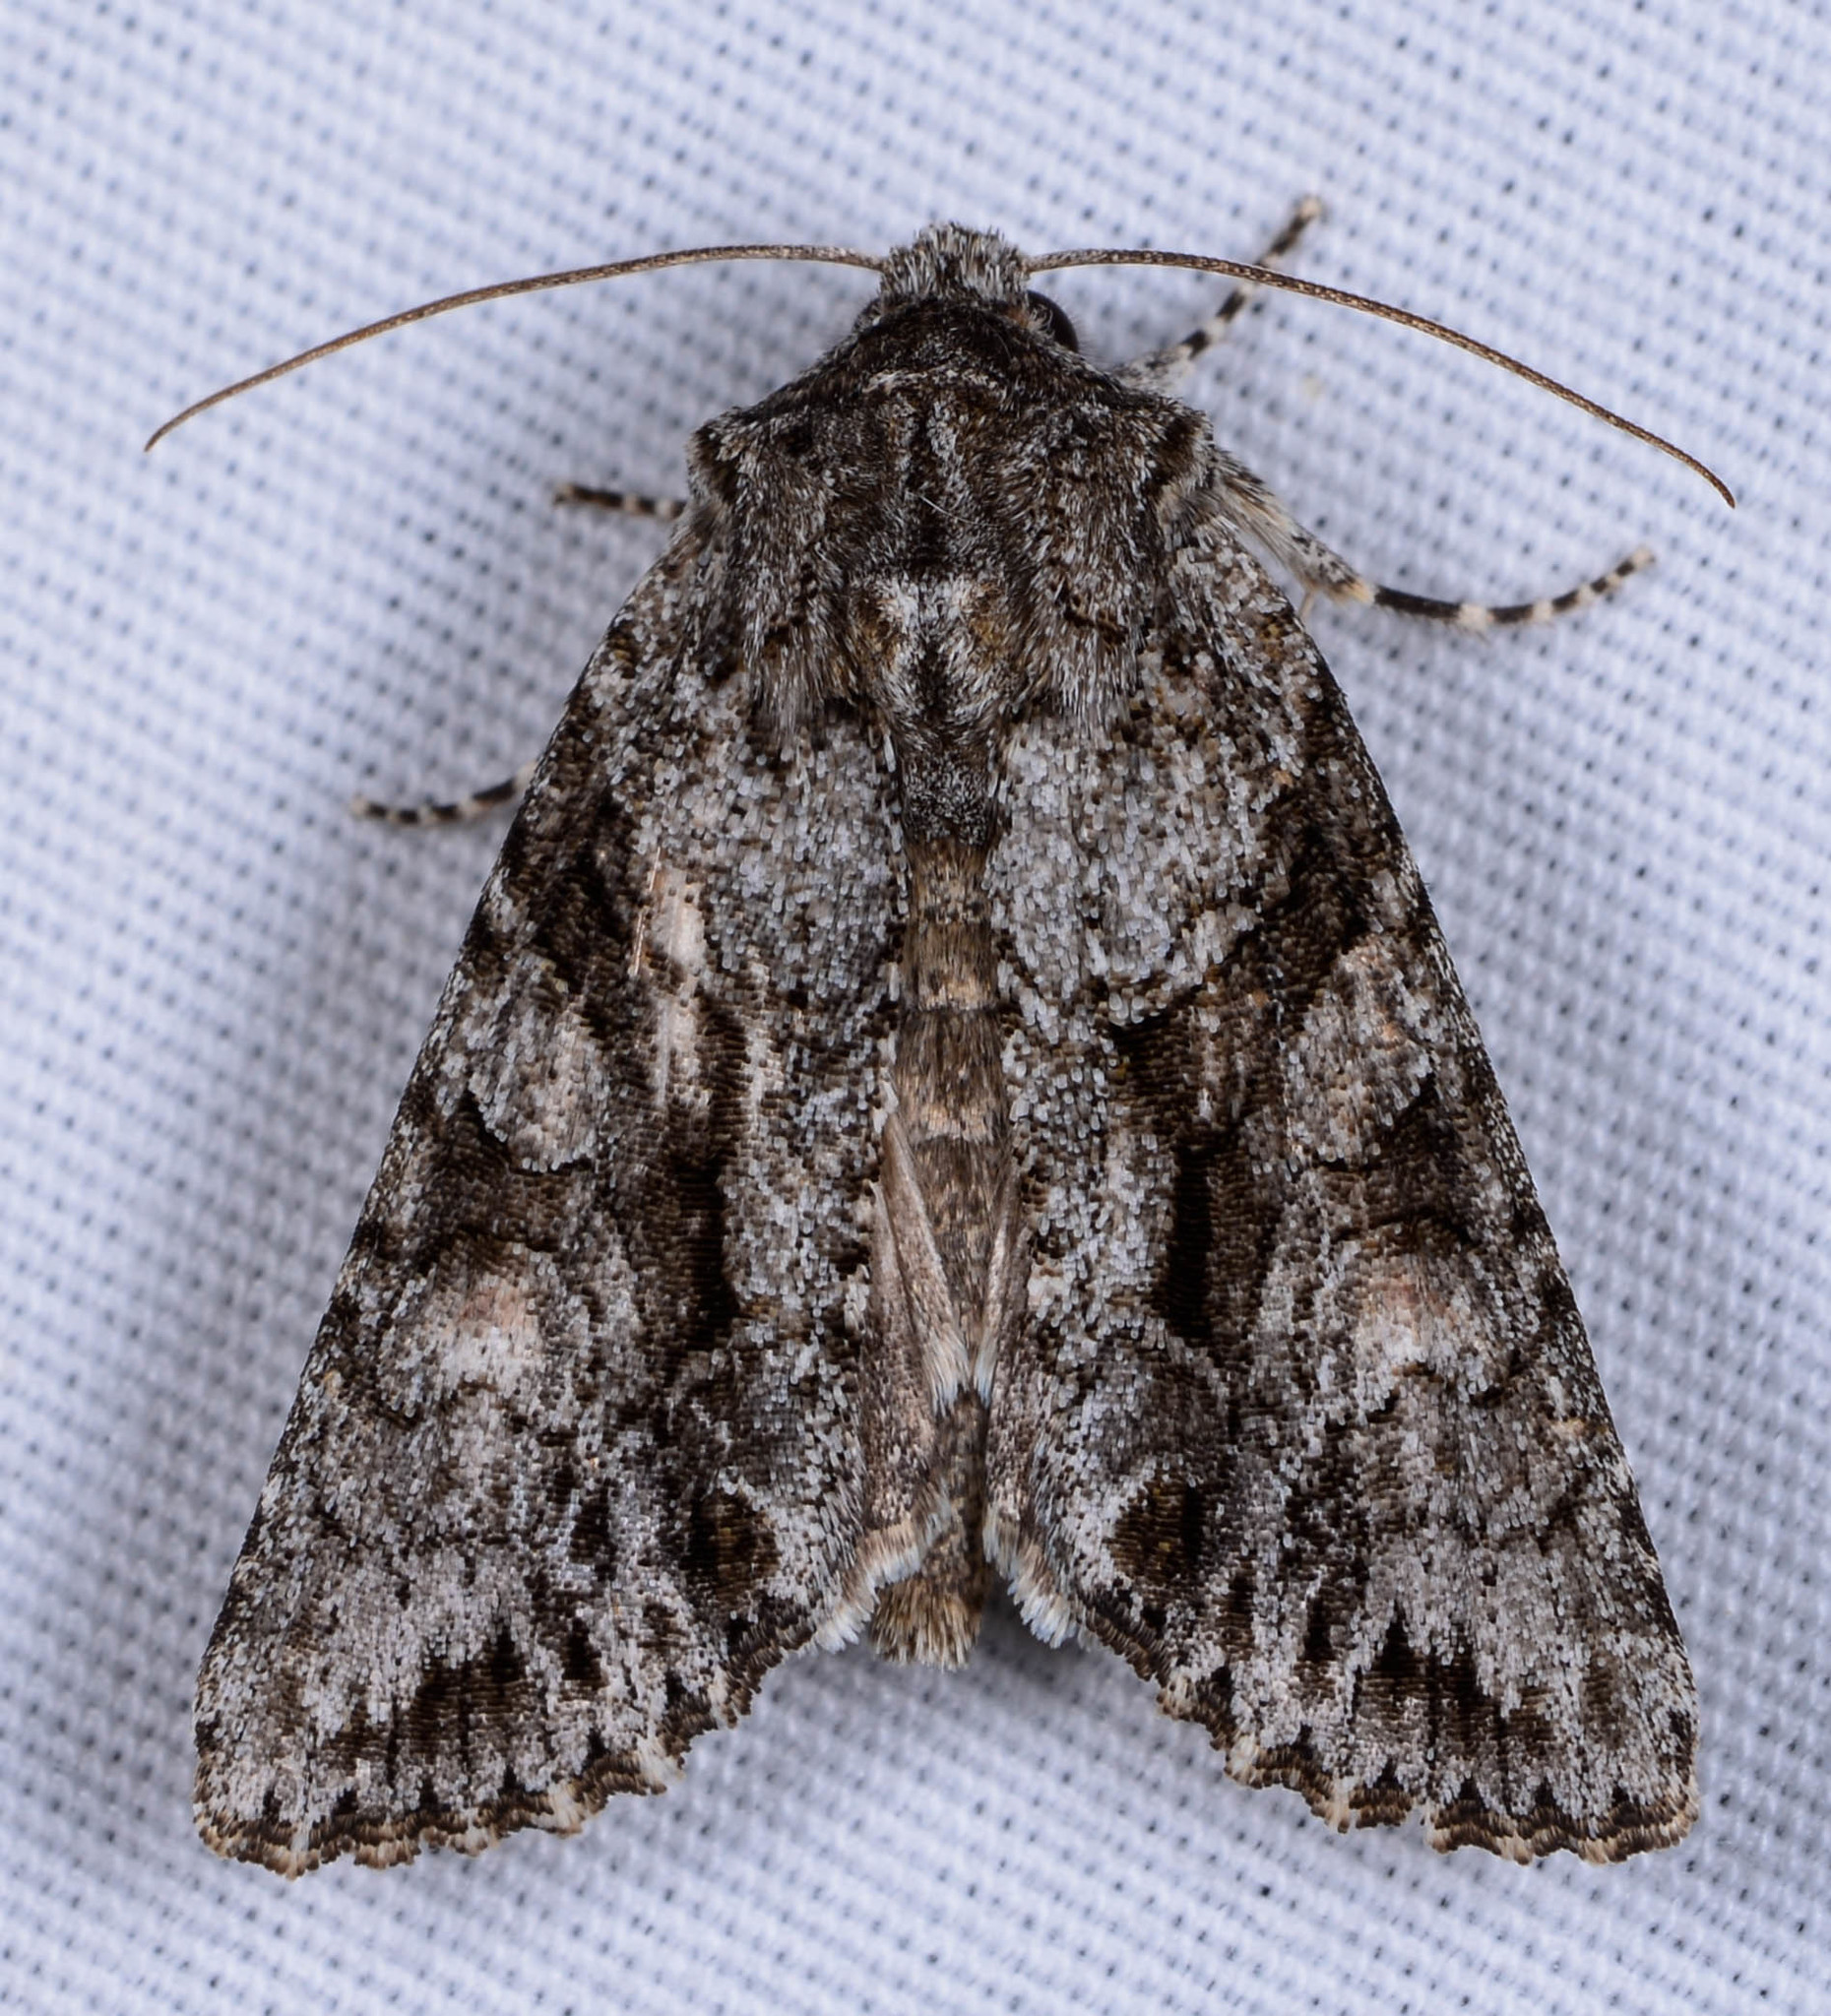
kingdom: Animalia
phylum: Arthropoda
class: Insecta
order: Lepidoptera
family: Noctuidae
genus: Achatia
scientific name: Achatia distincta
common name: Distinct quaker
